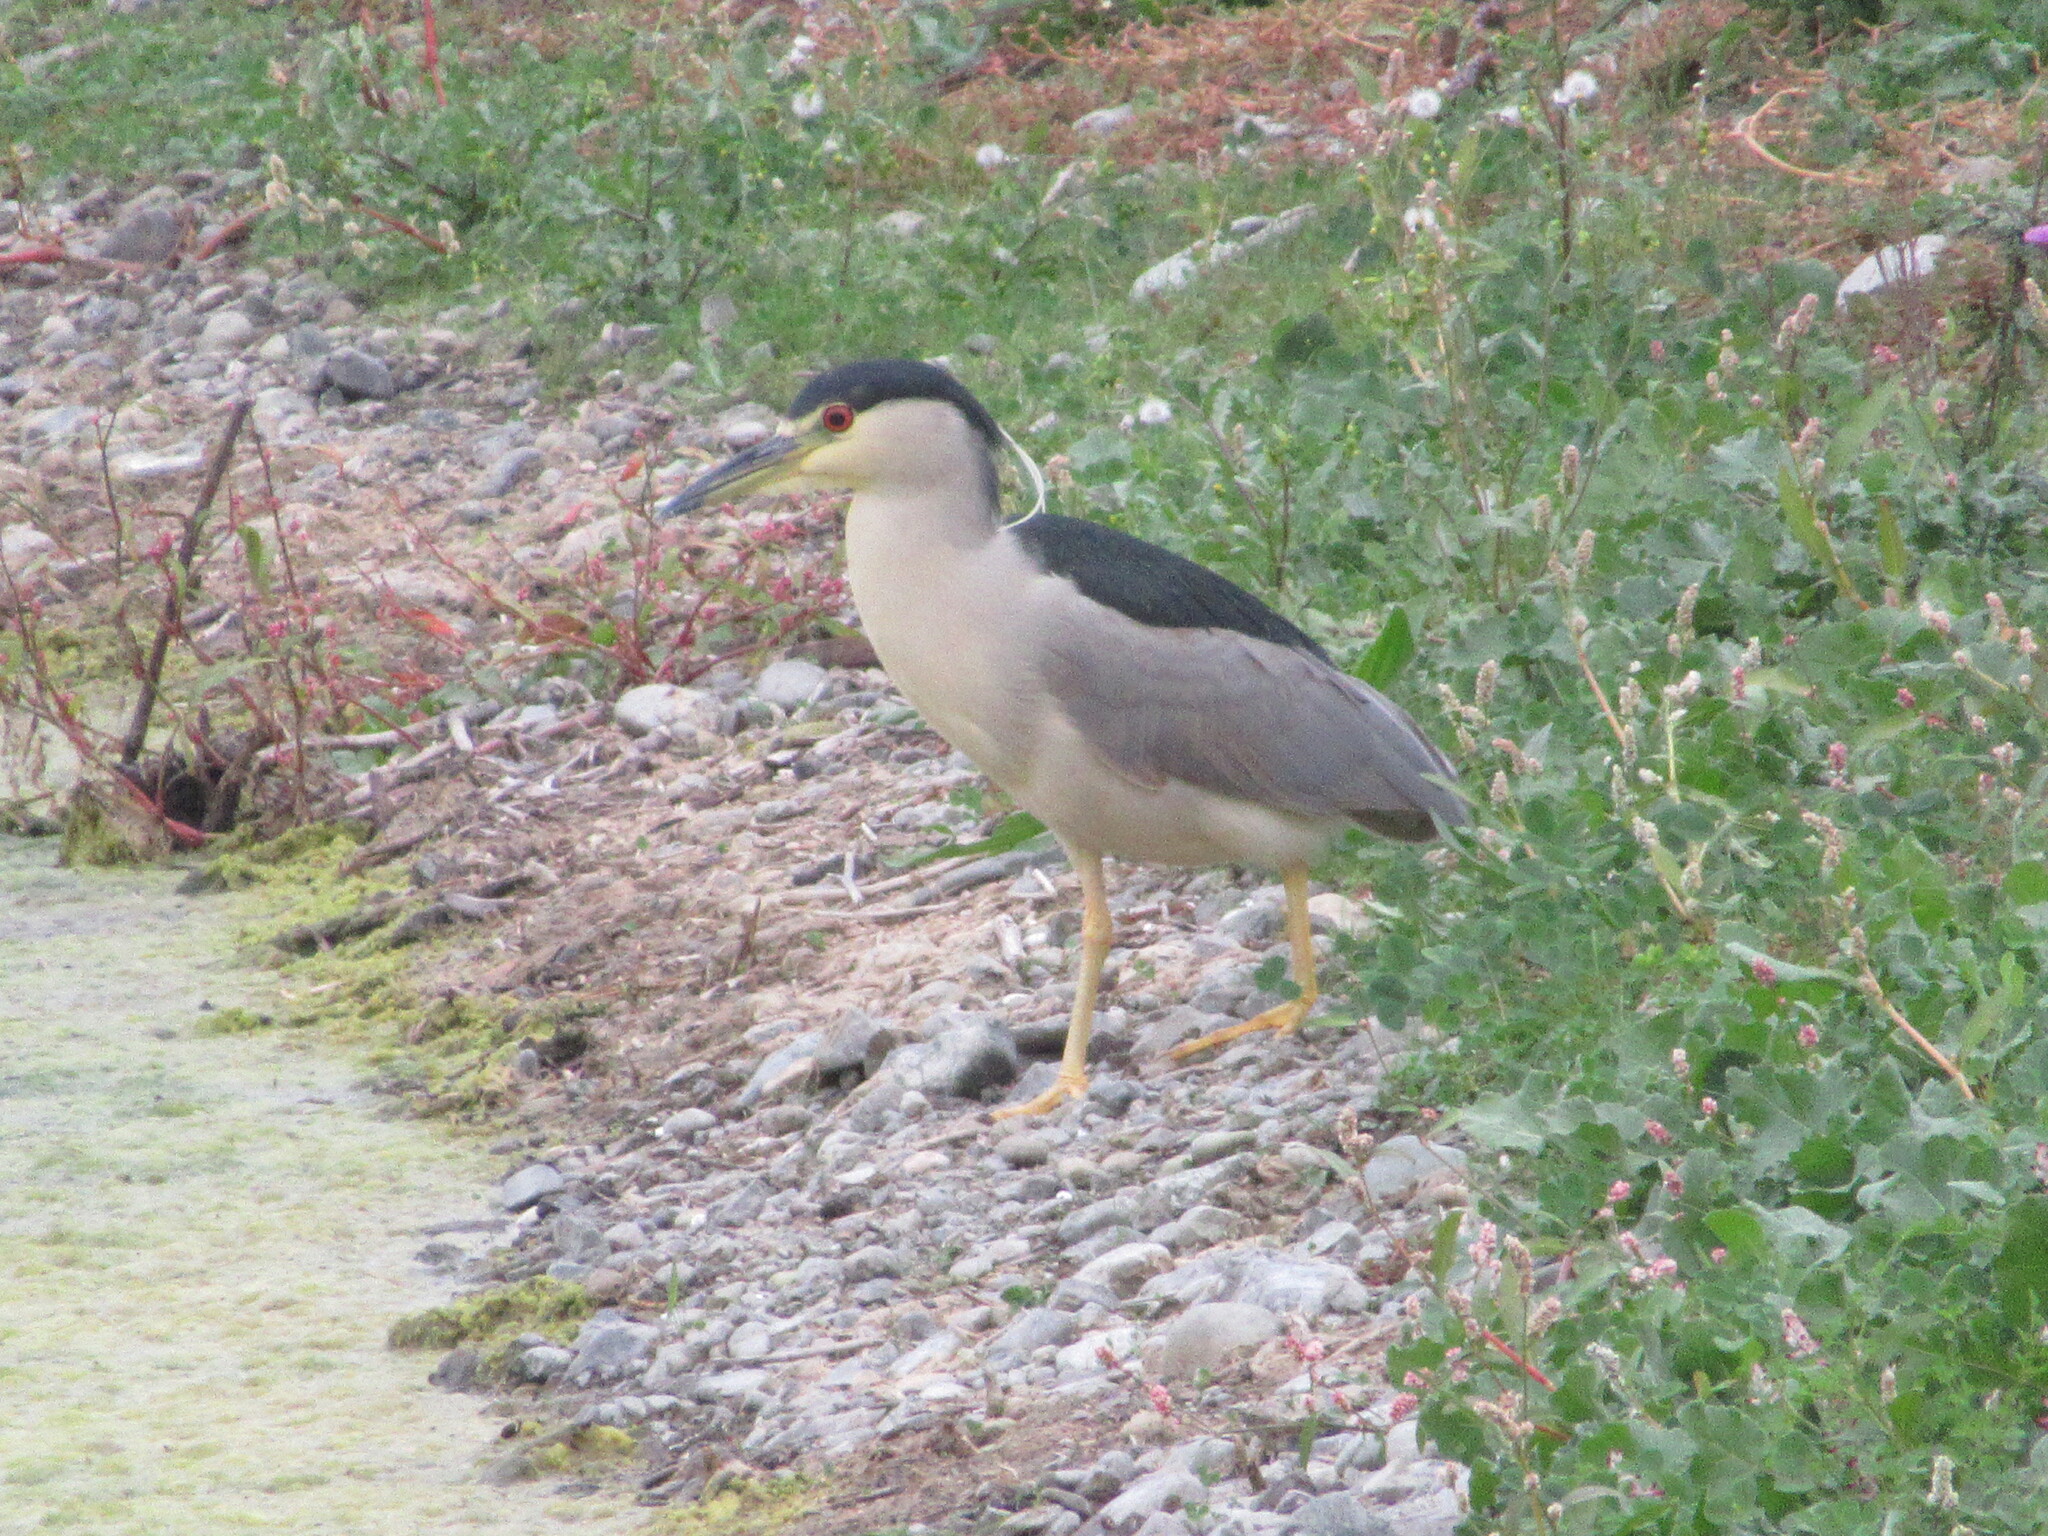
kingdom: Animalia
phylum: Chordata
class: Aves
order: Pelecaniformes
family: Ardeidae
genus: Nycticorax
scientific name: Nycticorax nycticorax
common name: Black-crowned night heron
